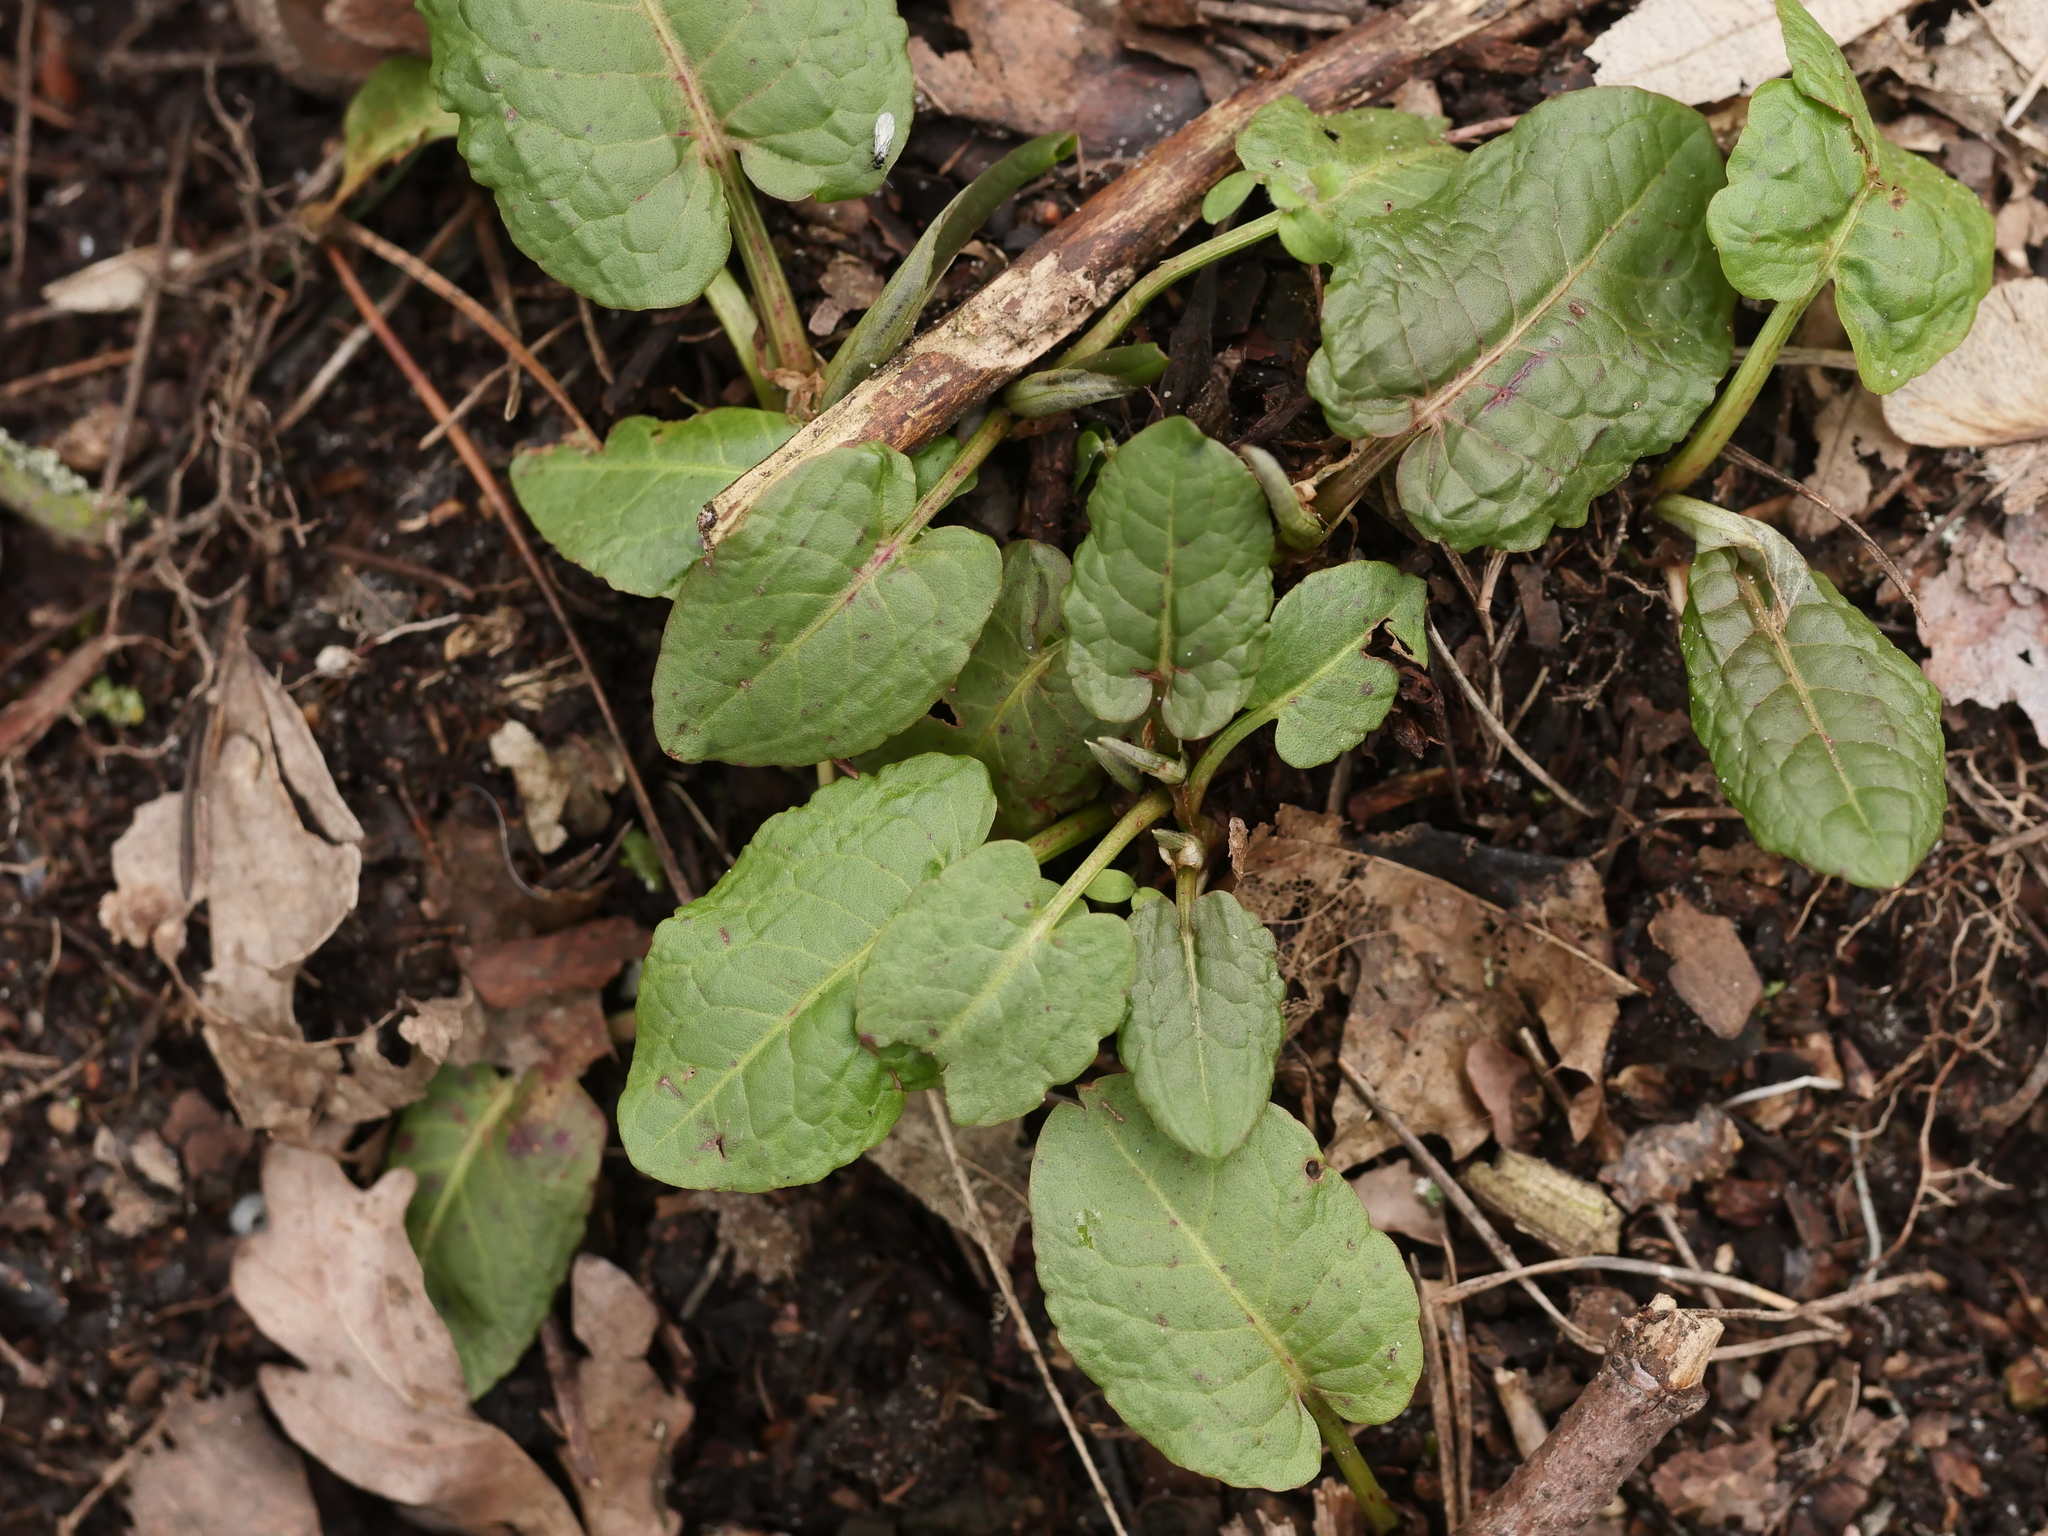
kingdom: Plantae
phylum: Tracheophyta
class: Magnoliopsida
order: Caryophyllales
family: Polygonaceae
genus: Rumex
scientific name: Rumex obtusifolius
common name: Bitter dock
